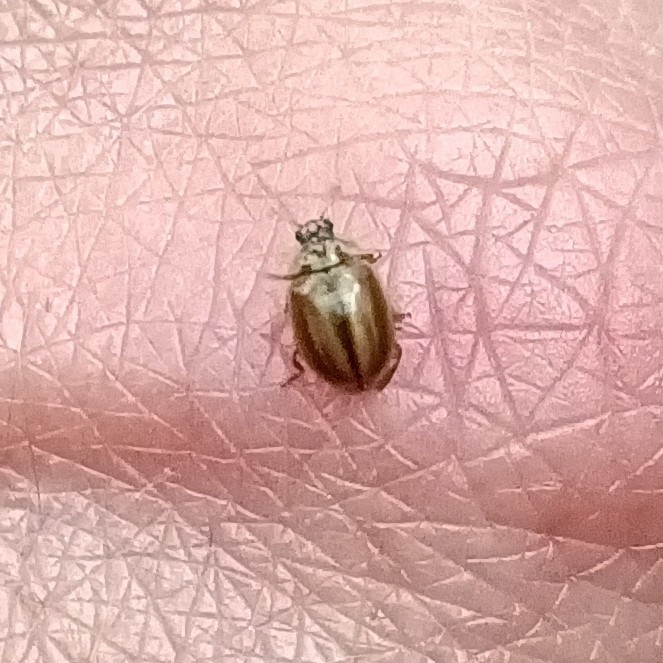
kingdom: Animalia
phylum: Arthropoda
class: Insecta
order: Coleoptera
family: Coccinellidae
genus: Aphidecta
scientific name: Aphidecta obliterata
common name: Larch ladybird
